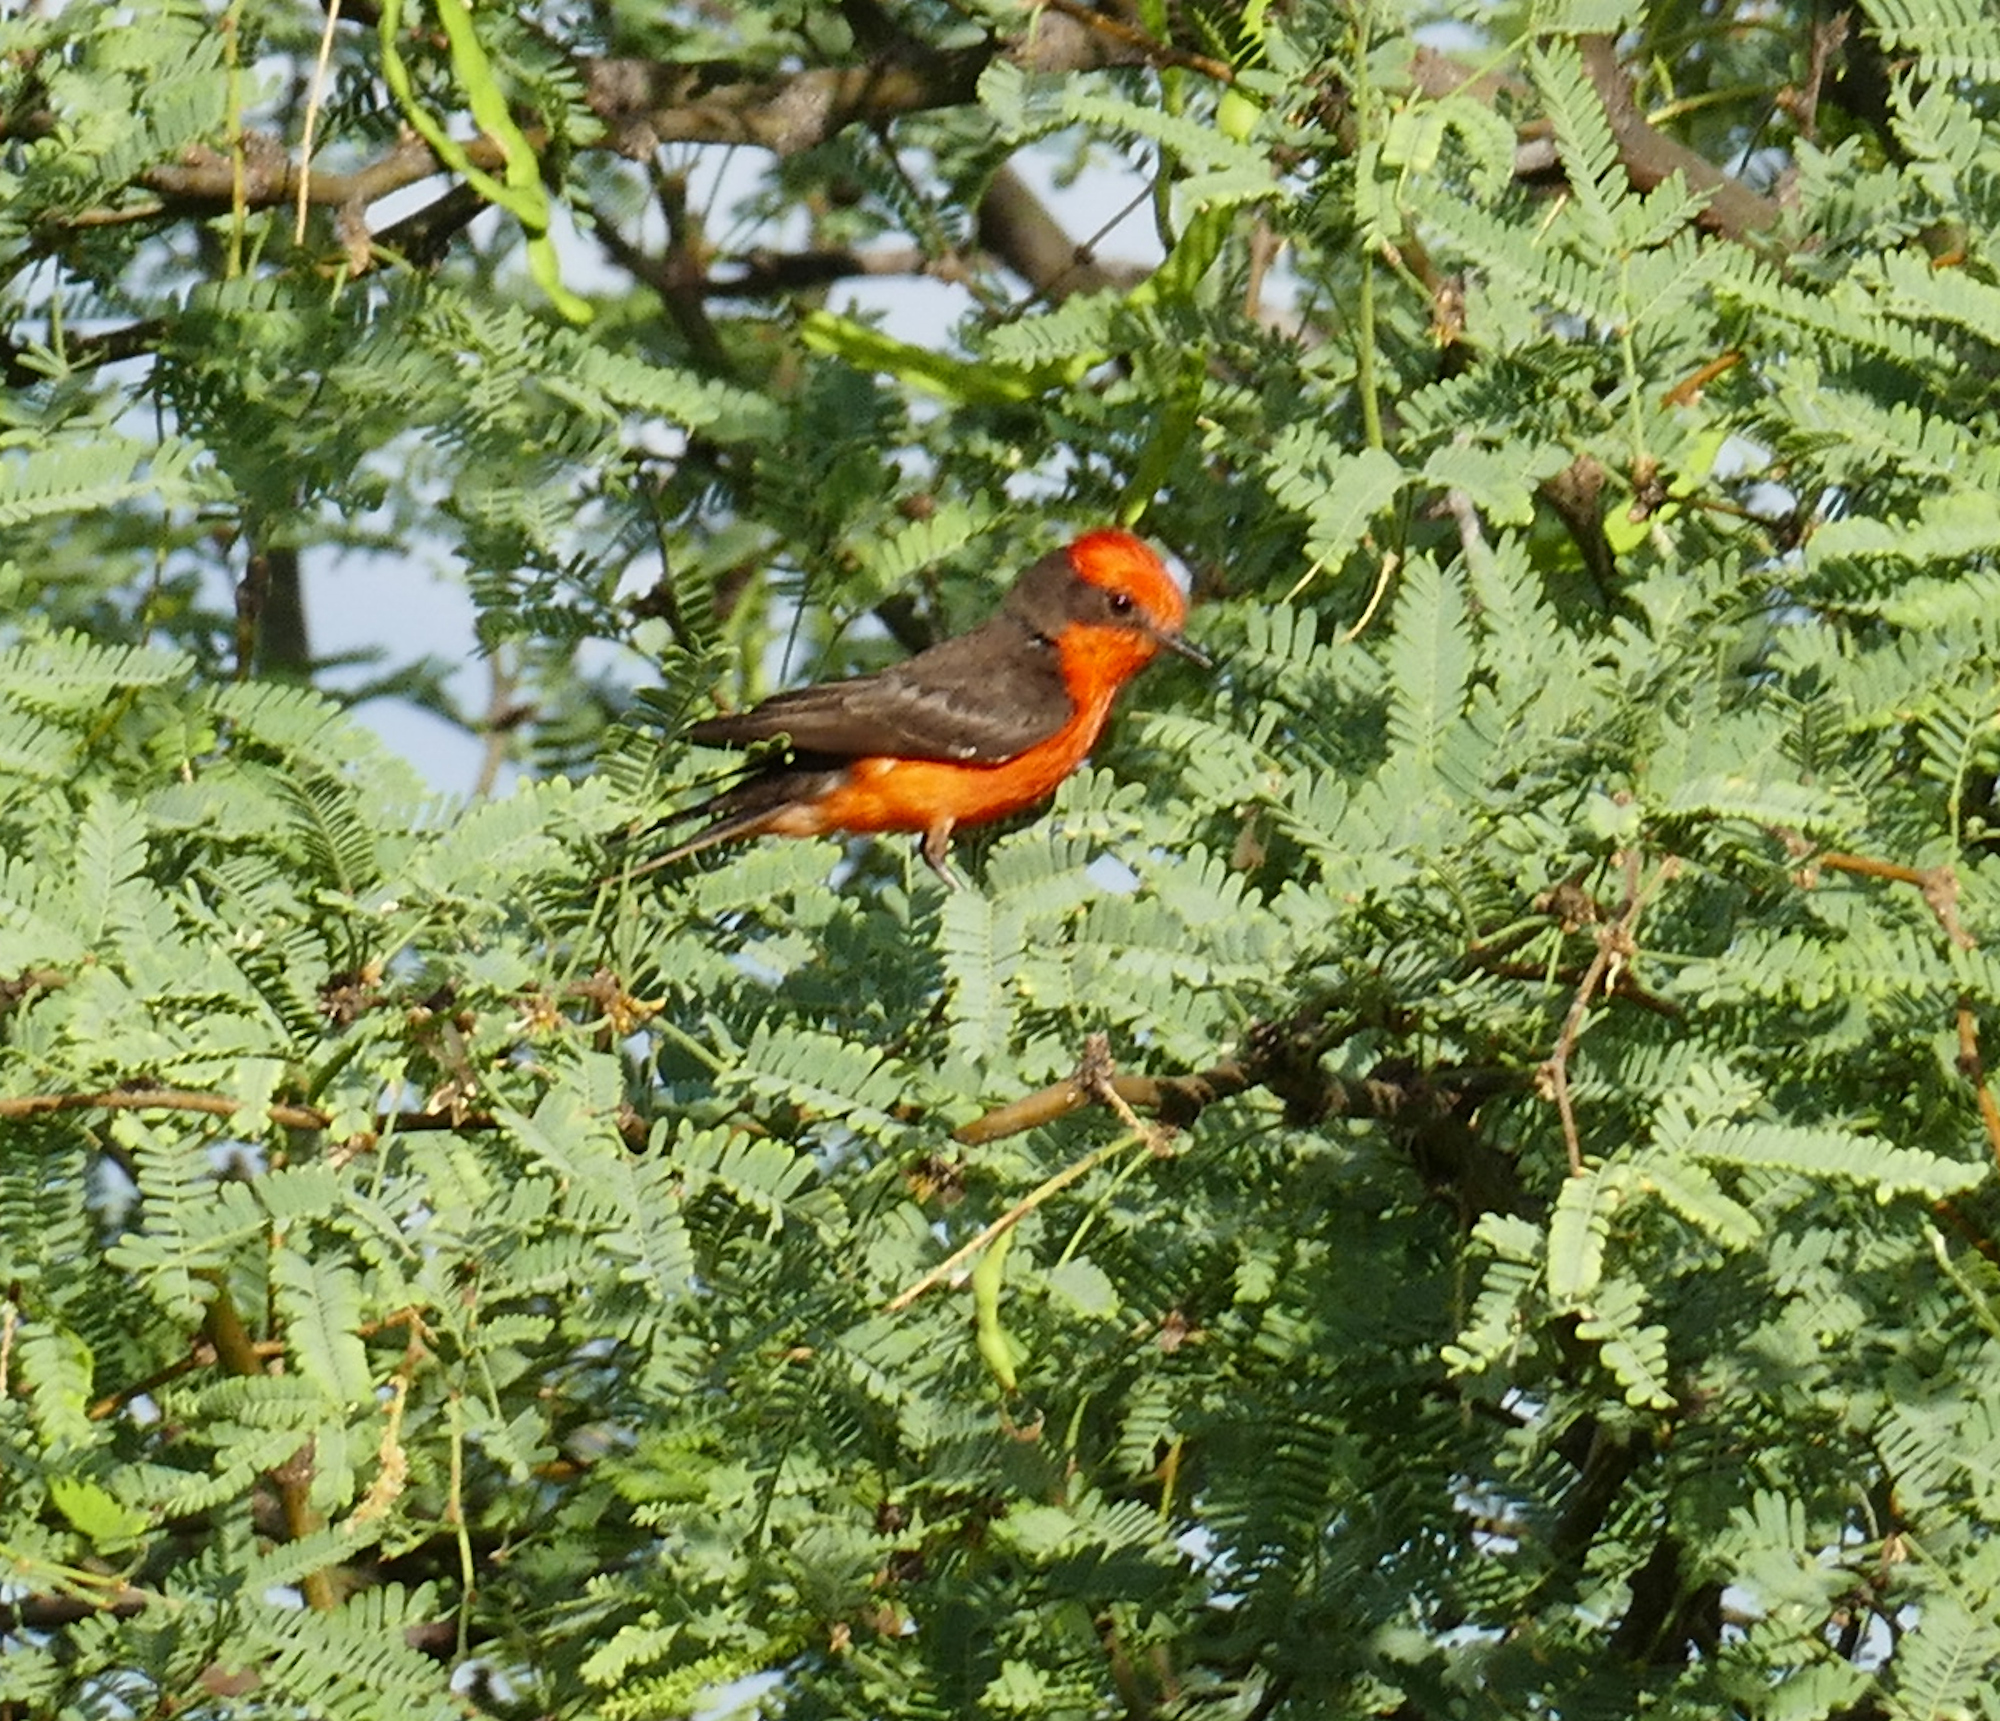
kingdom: Animalia
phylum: Chordata
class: Aves
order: Passeriformes
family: Tyrannidae
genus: Pyrocephalus
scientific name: Pyrocephalus rubinus
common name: Vermilion flycatcher
